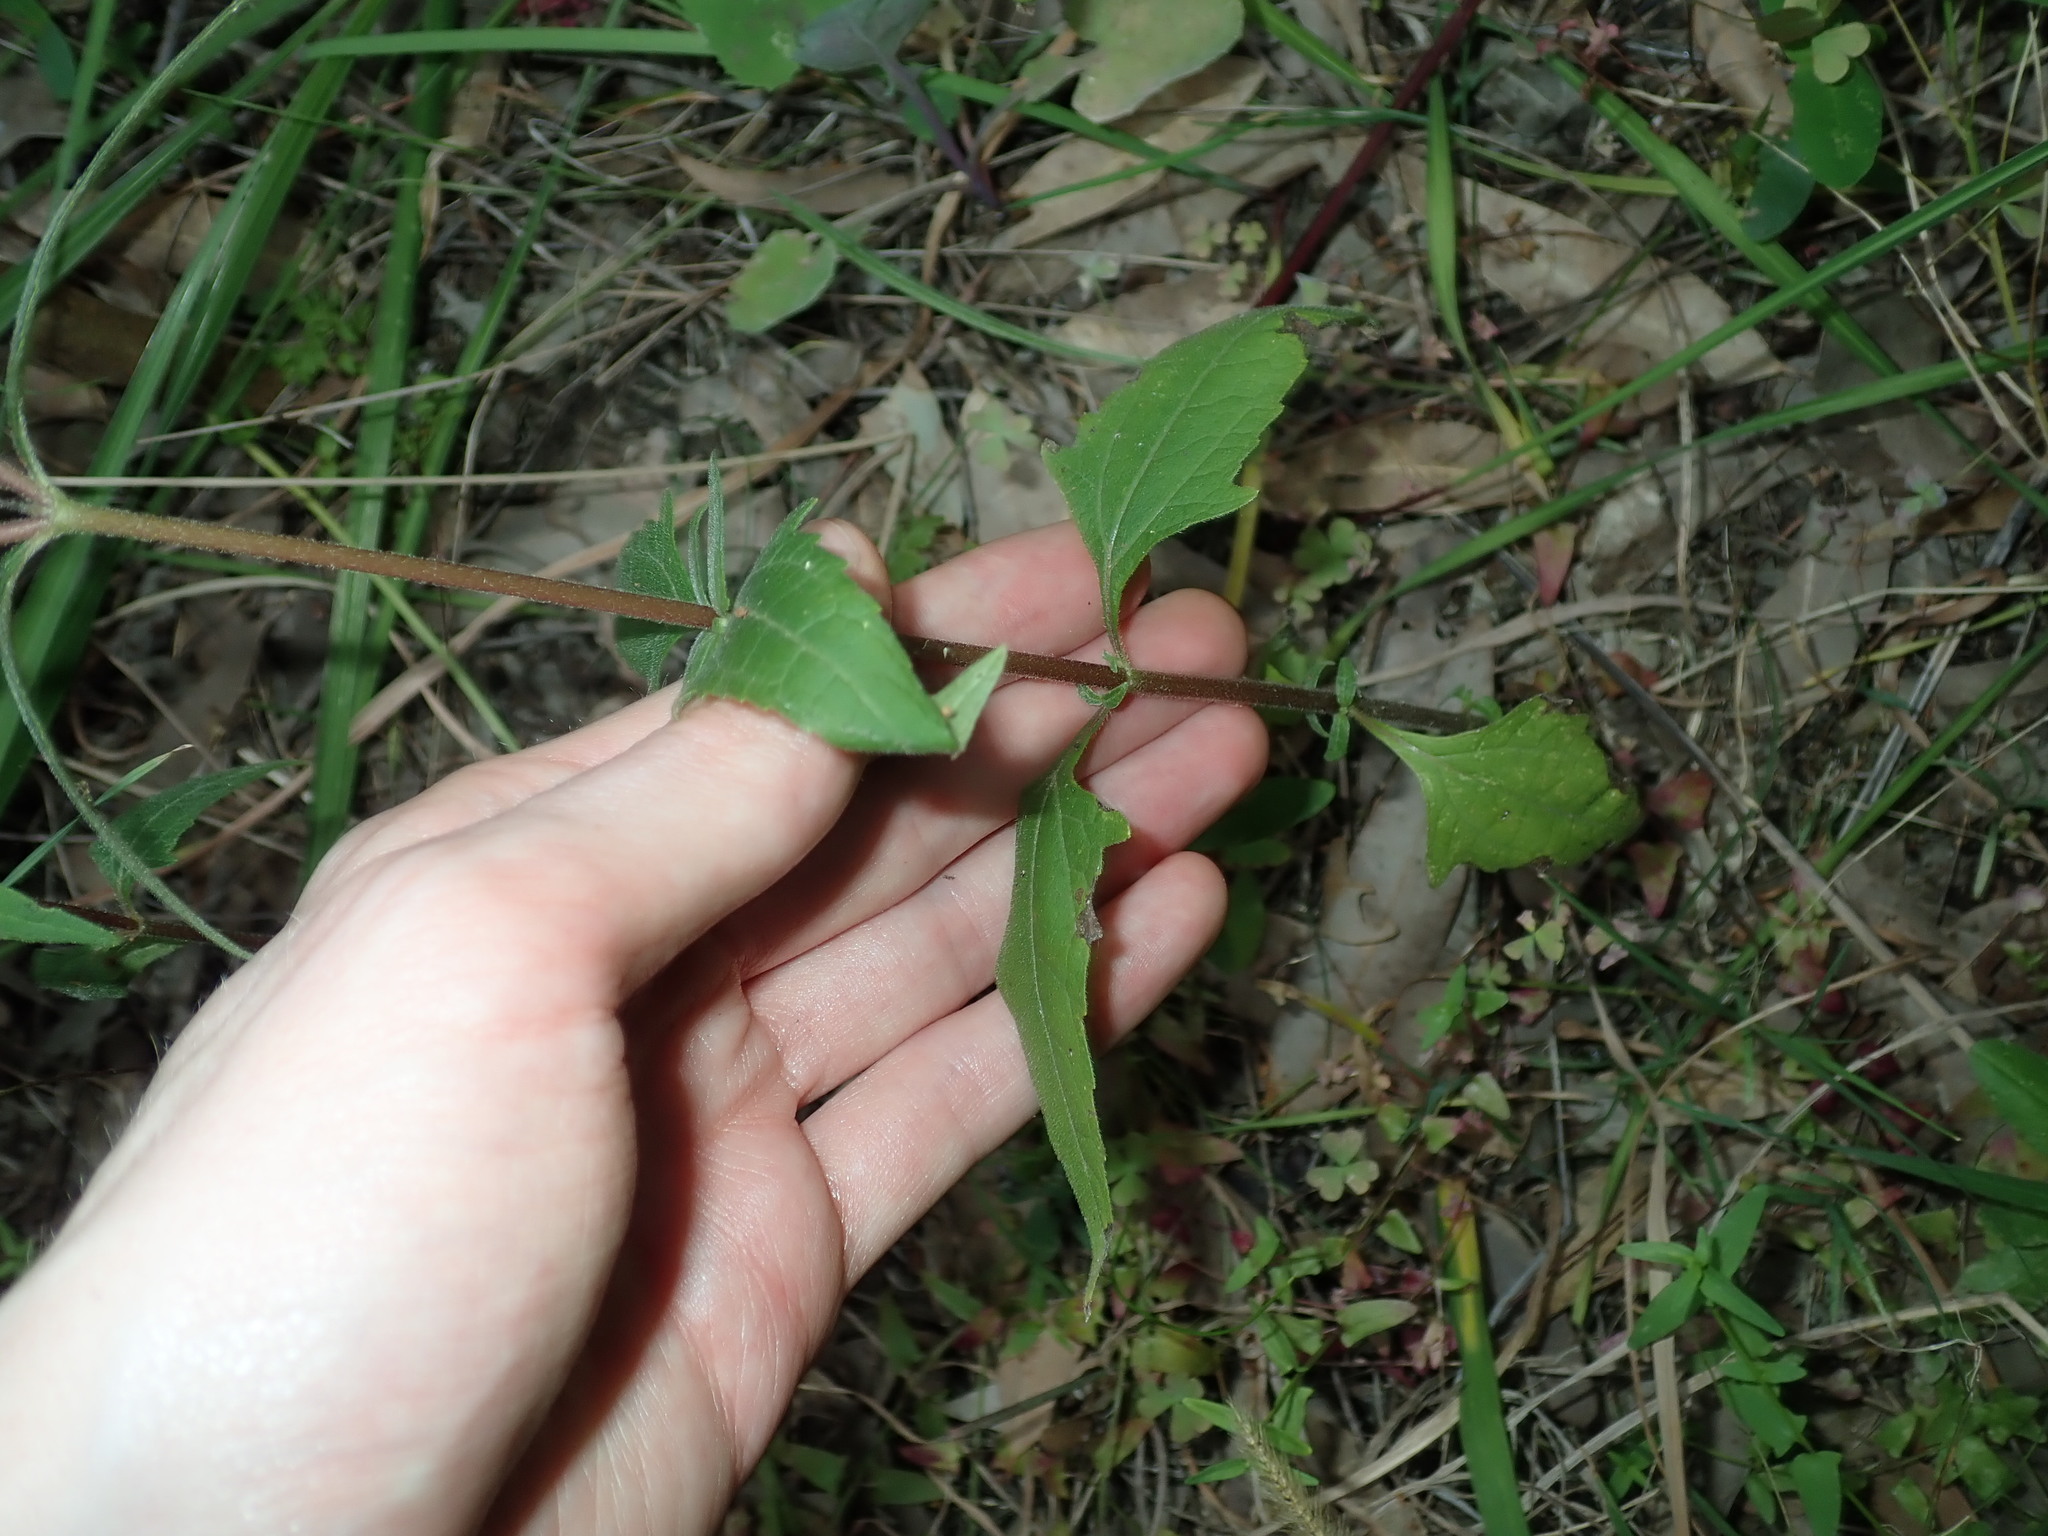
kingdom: Plantae
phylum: Tracheophyta
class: Magnoliopsida
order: Asterales
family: Asteraceae
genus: Sigesbeckia
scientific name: Sigesbeckia orientalis
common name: Eastern st paul's-wort
